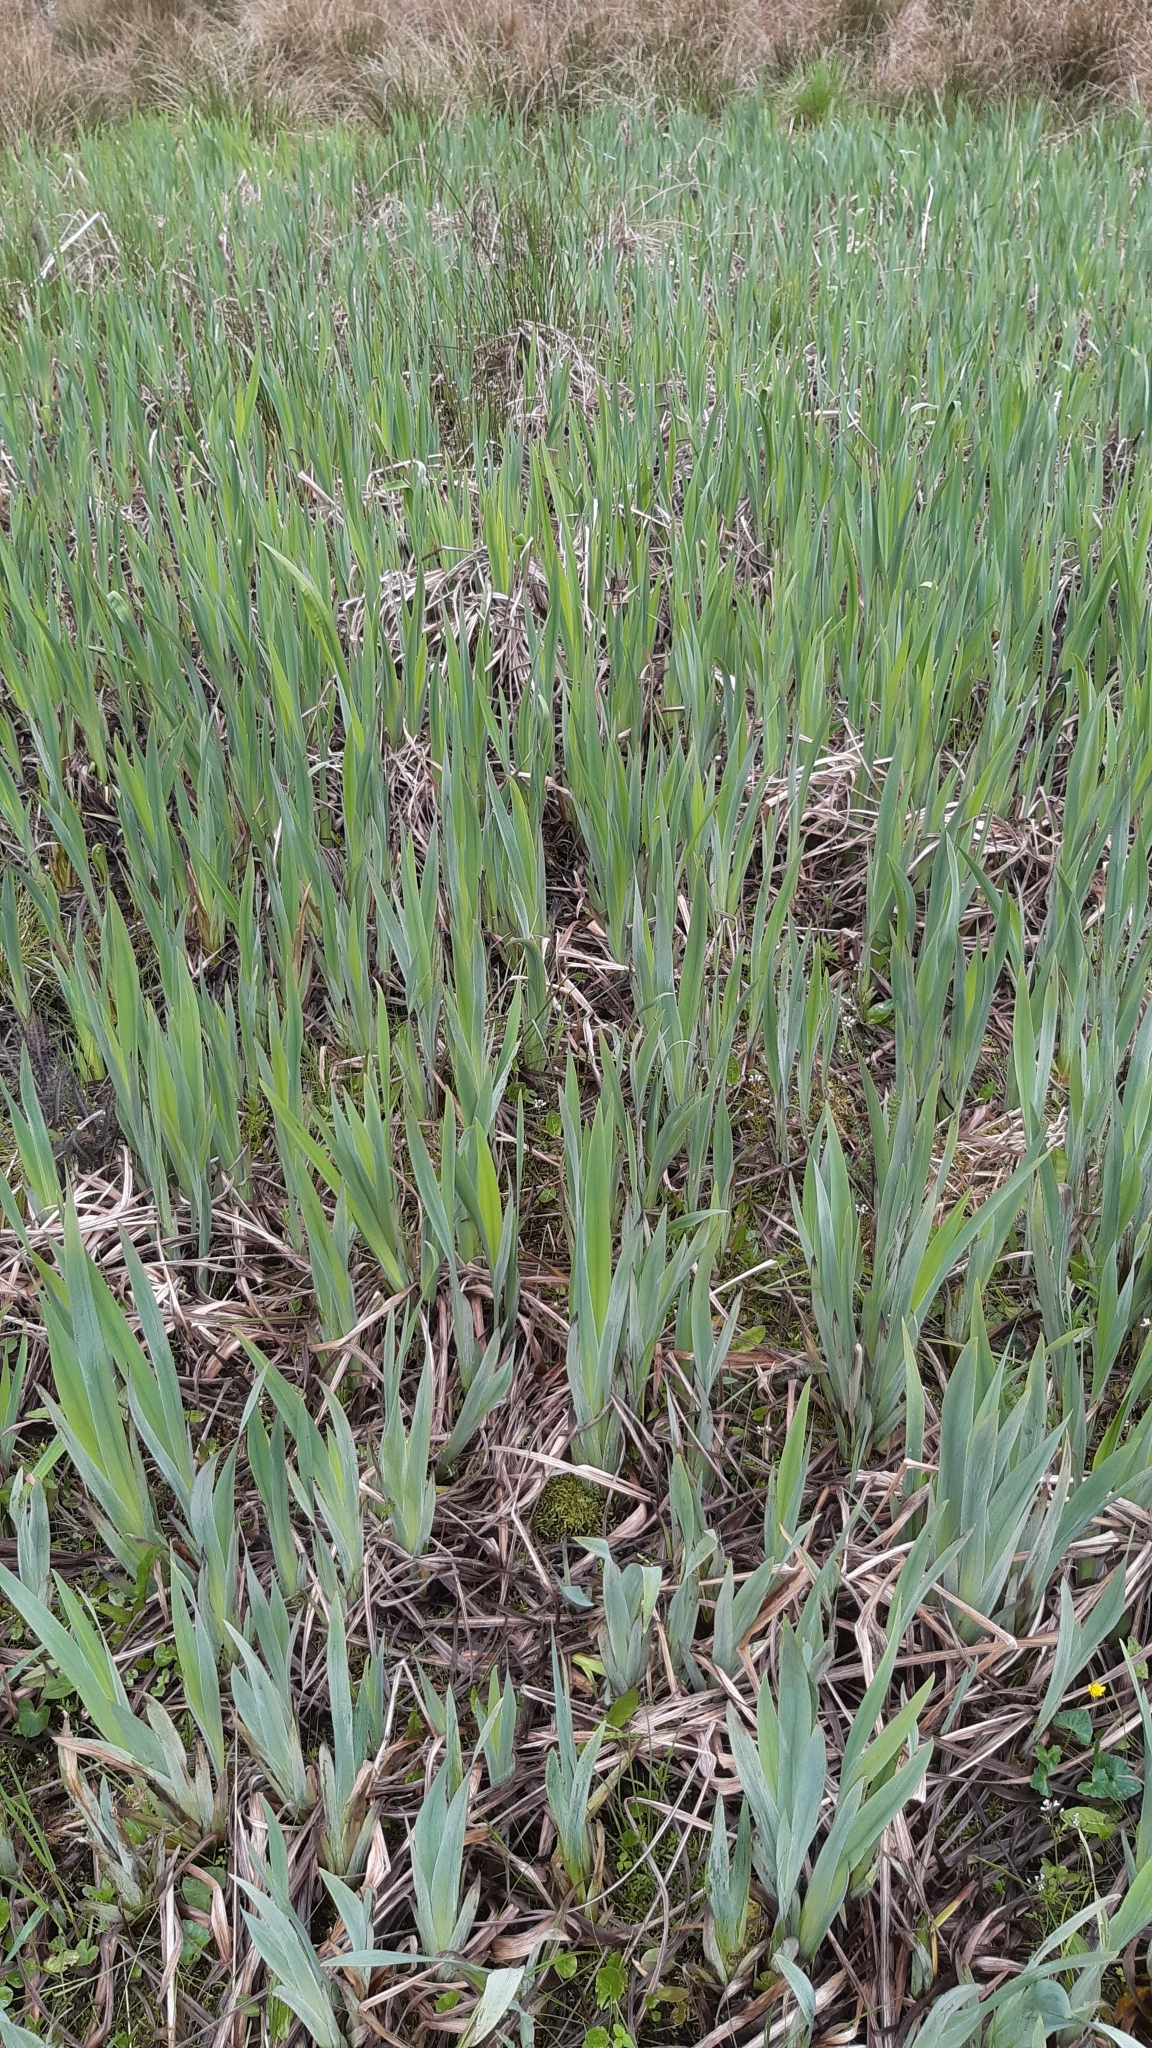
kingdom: Plantae
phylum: Tracheophyta
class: Liliopsida
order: Asparagales
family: Iridaceae
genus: Iris
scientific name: Iris pseudacorus
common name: Yellow flag
